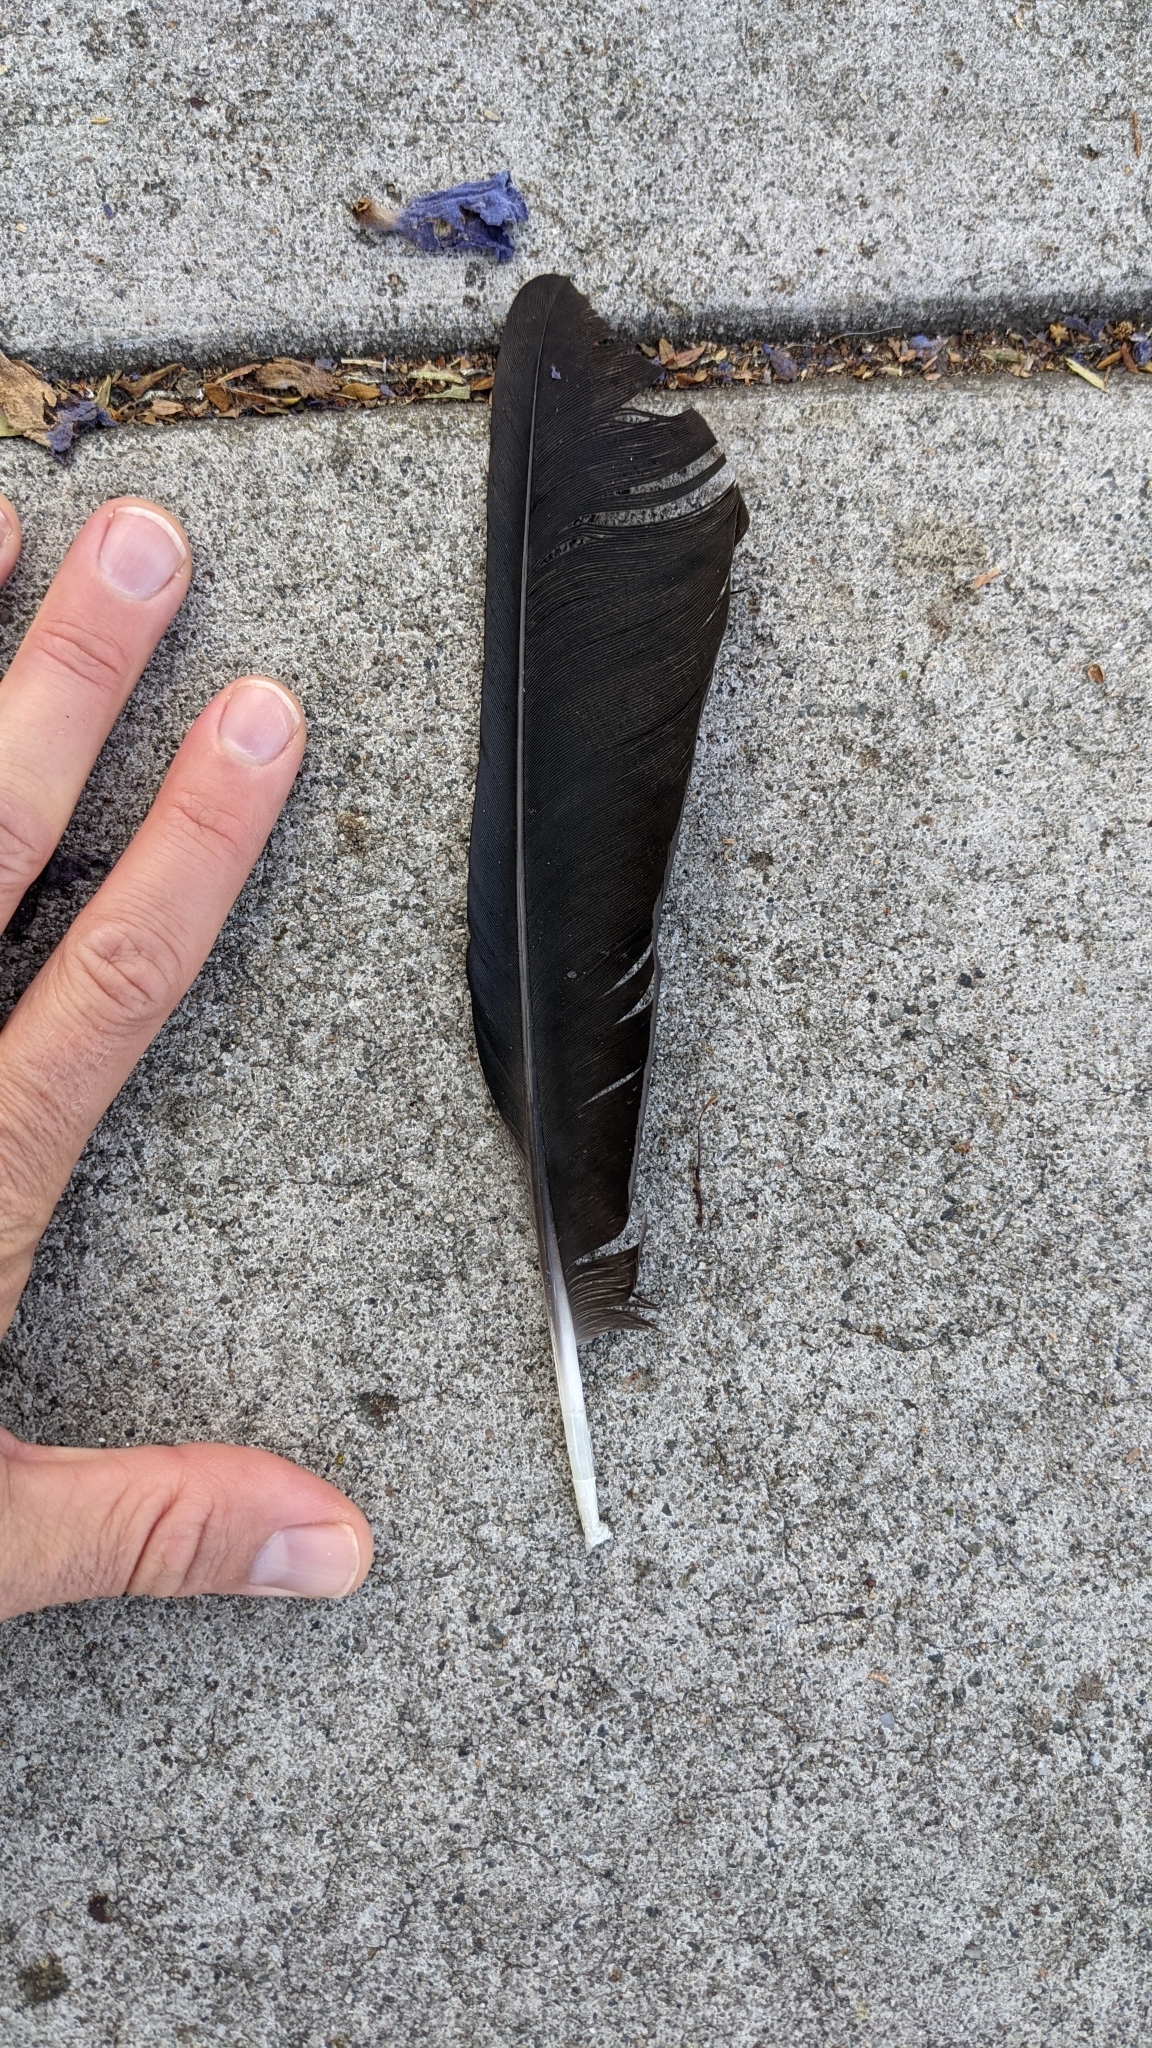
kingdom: Animalia
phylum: Chordata
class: Aves
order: Passeriformes
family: Corvidae
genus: Corvus
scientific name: Corvus brachyrhynchos
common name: American crow
